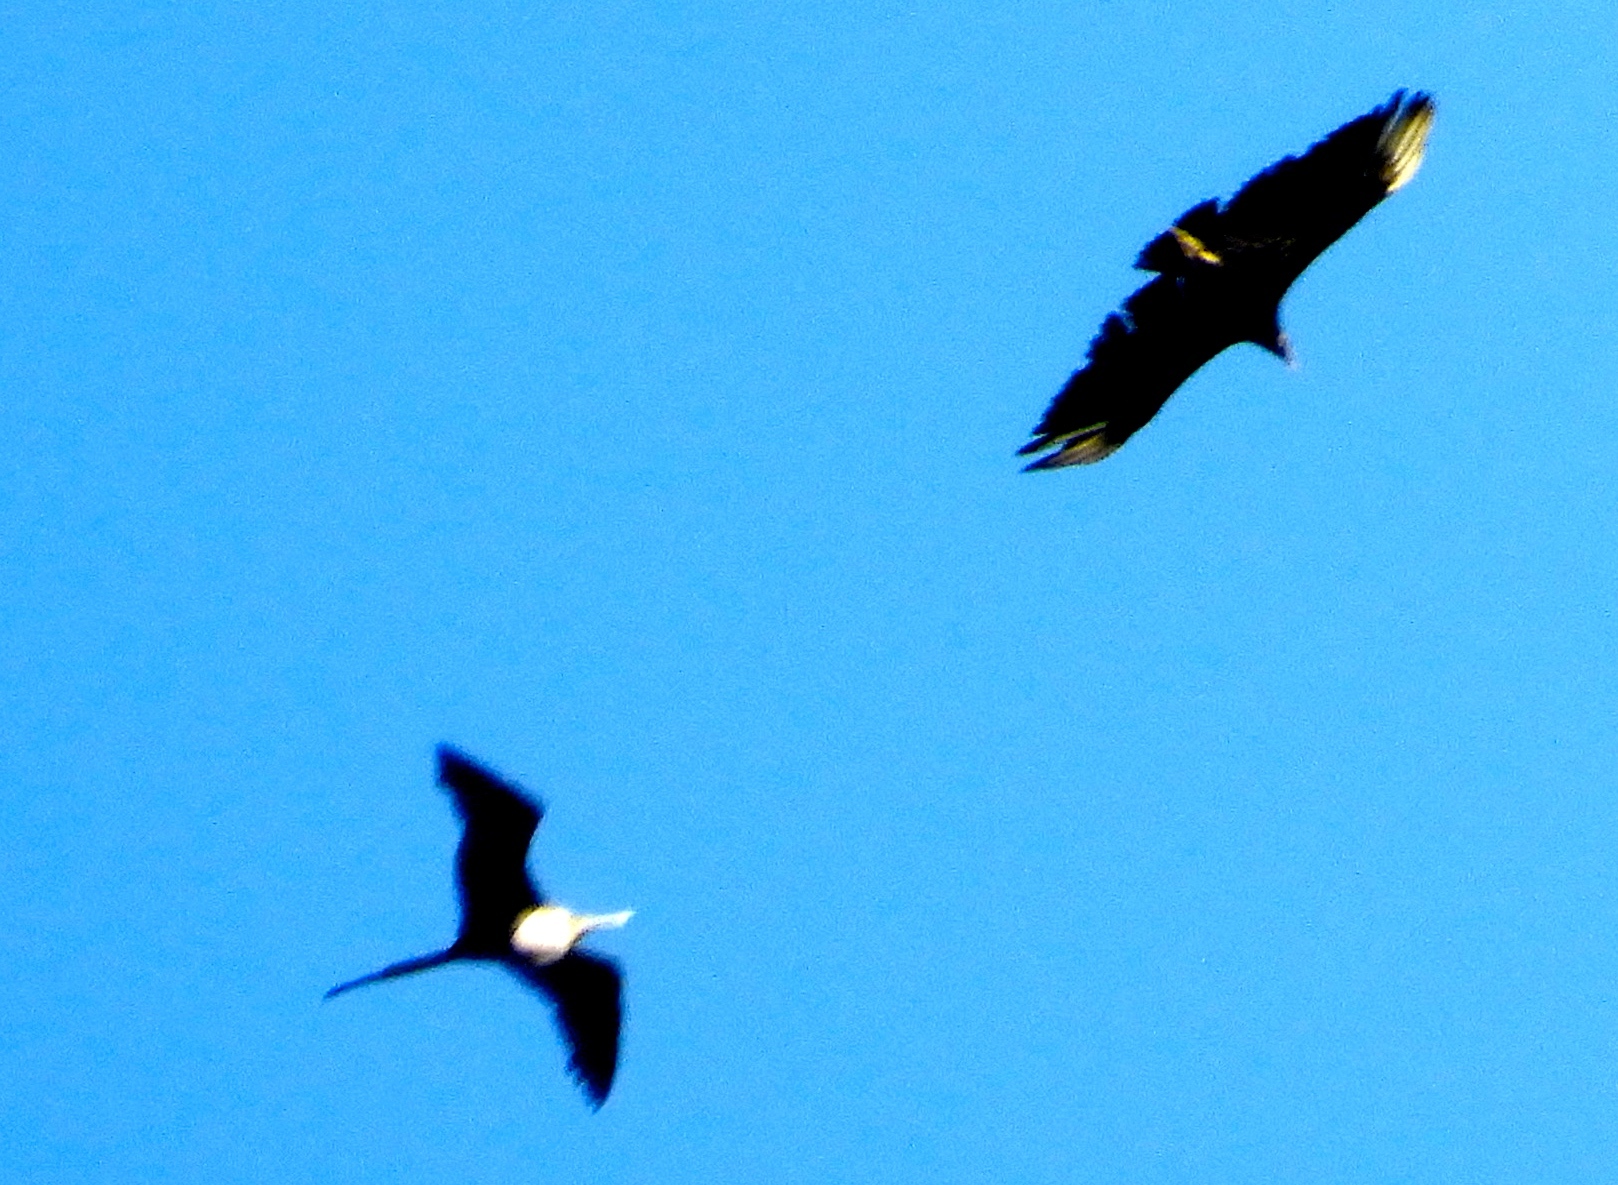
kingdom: Animalia
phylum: Chordata
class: Aves
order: Suliformes
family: Fregatidae
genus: Fregata
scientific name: Fregata magnificens
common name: Magnificent frigatebird
